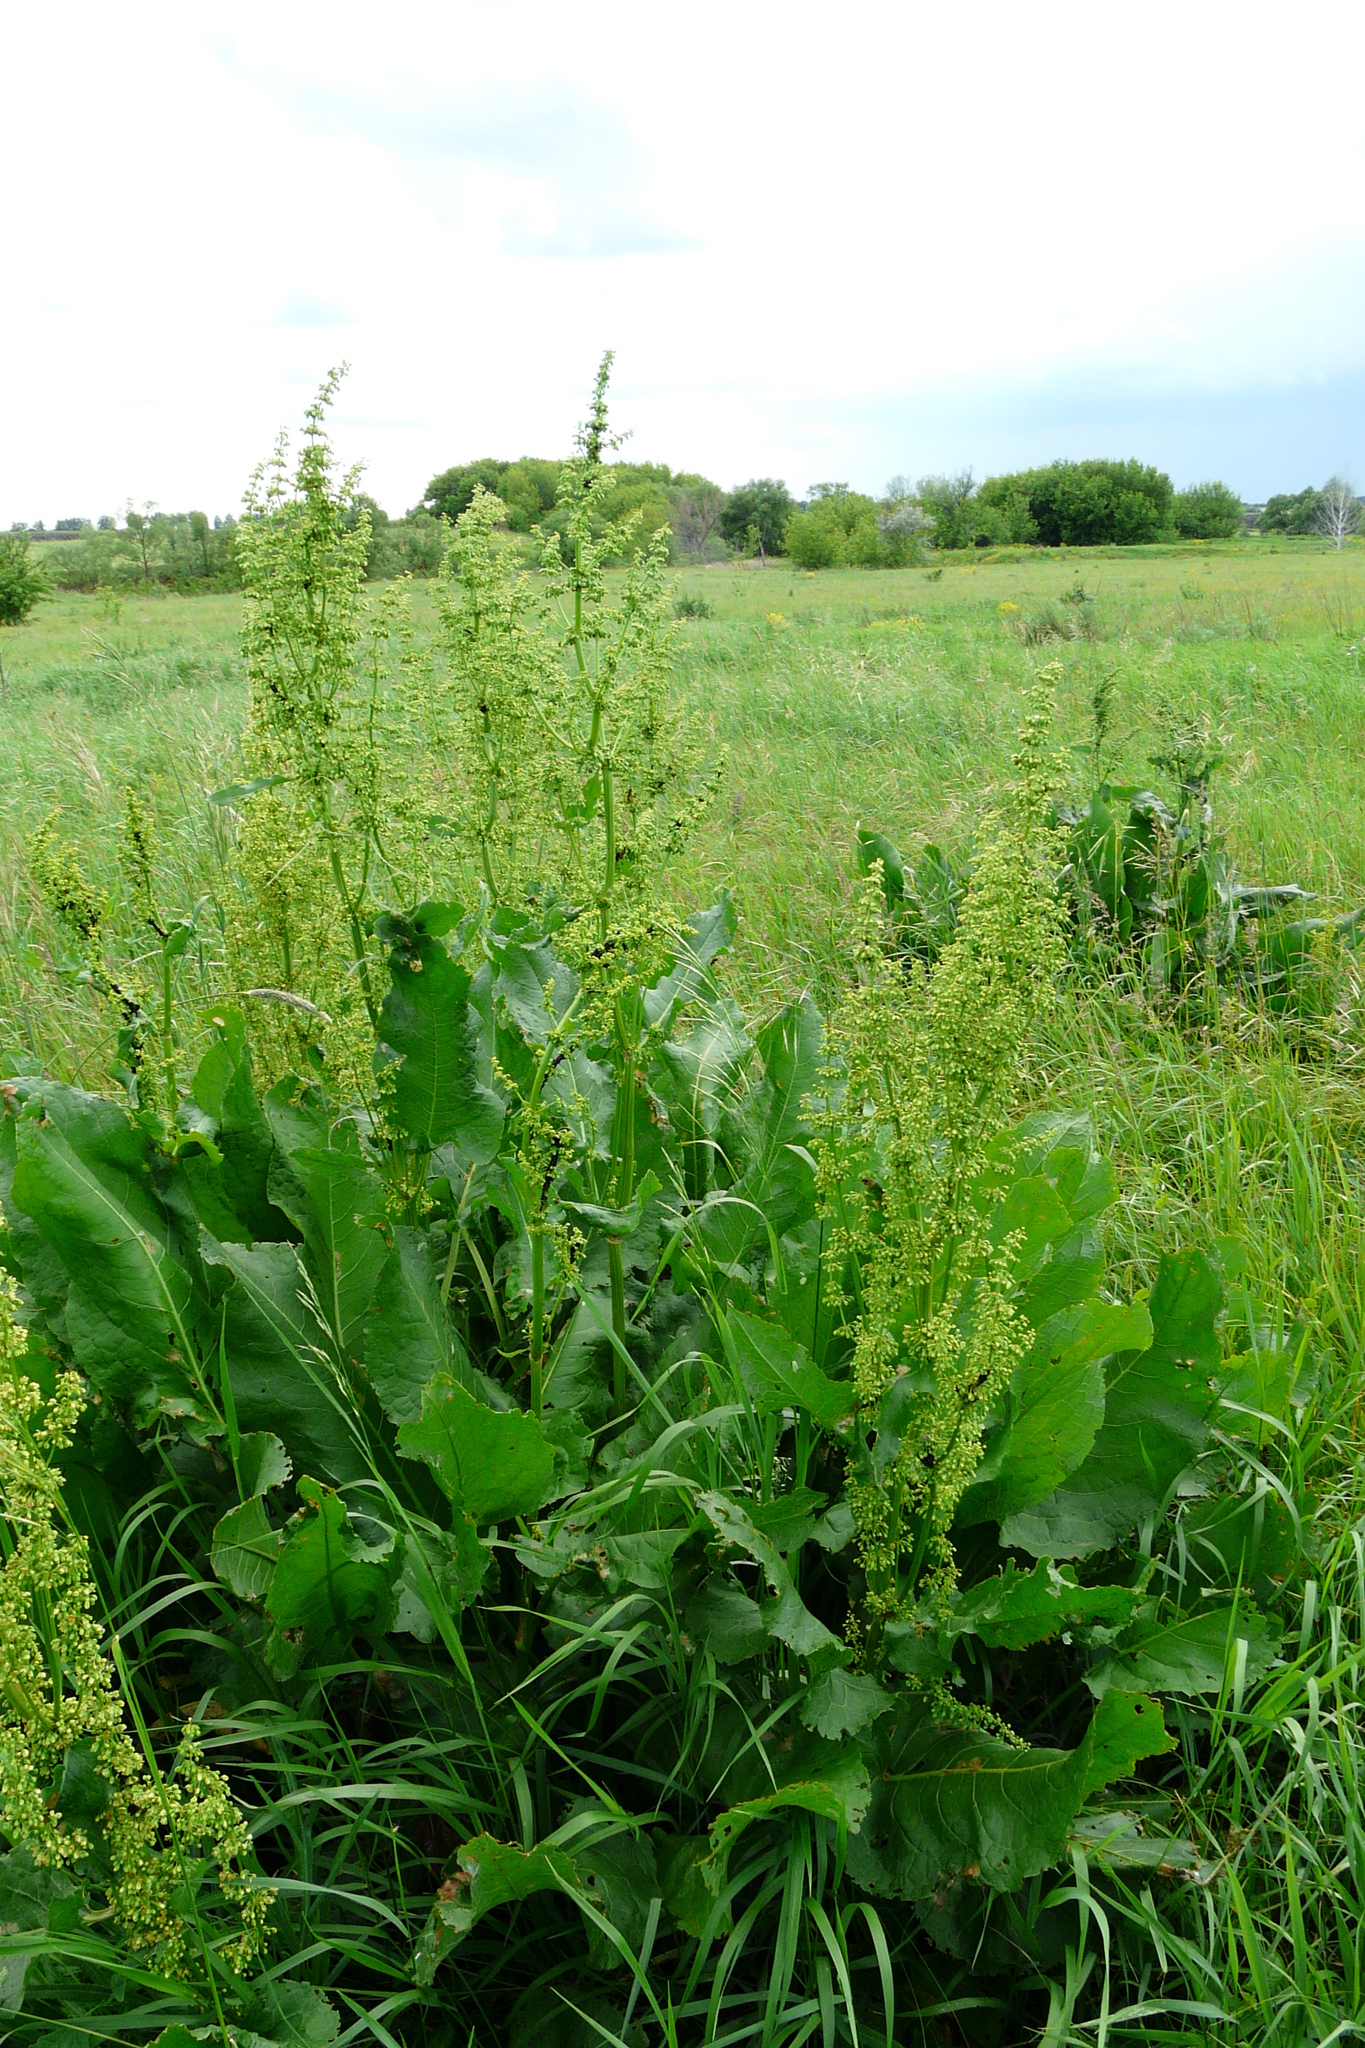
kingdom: Plantae
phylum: Tracheophyta
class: Magnoliopsida
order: Caryophyllales
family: Polygonaceae
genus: Rumex
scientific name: Rumex confertus
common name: Russian dock
